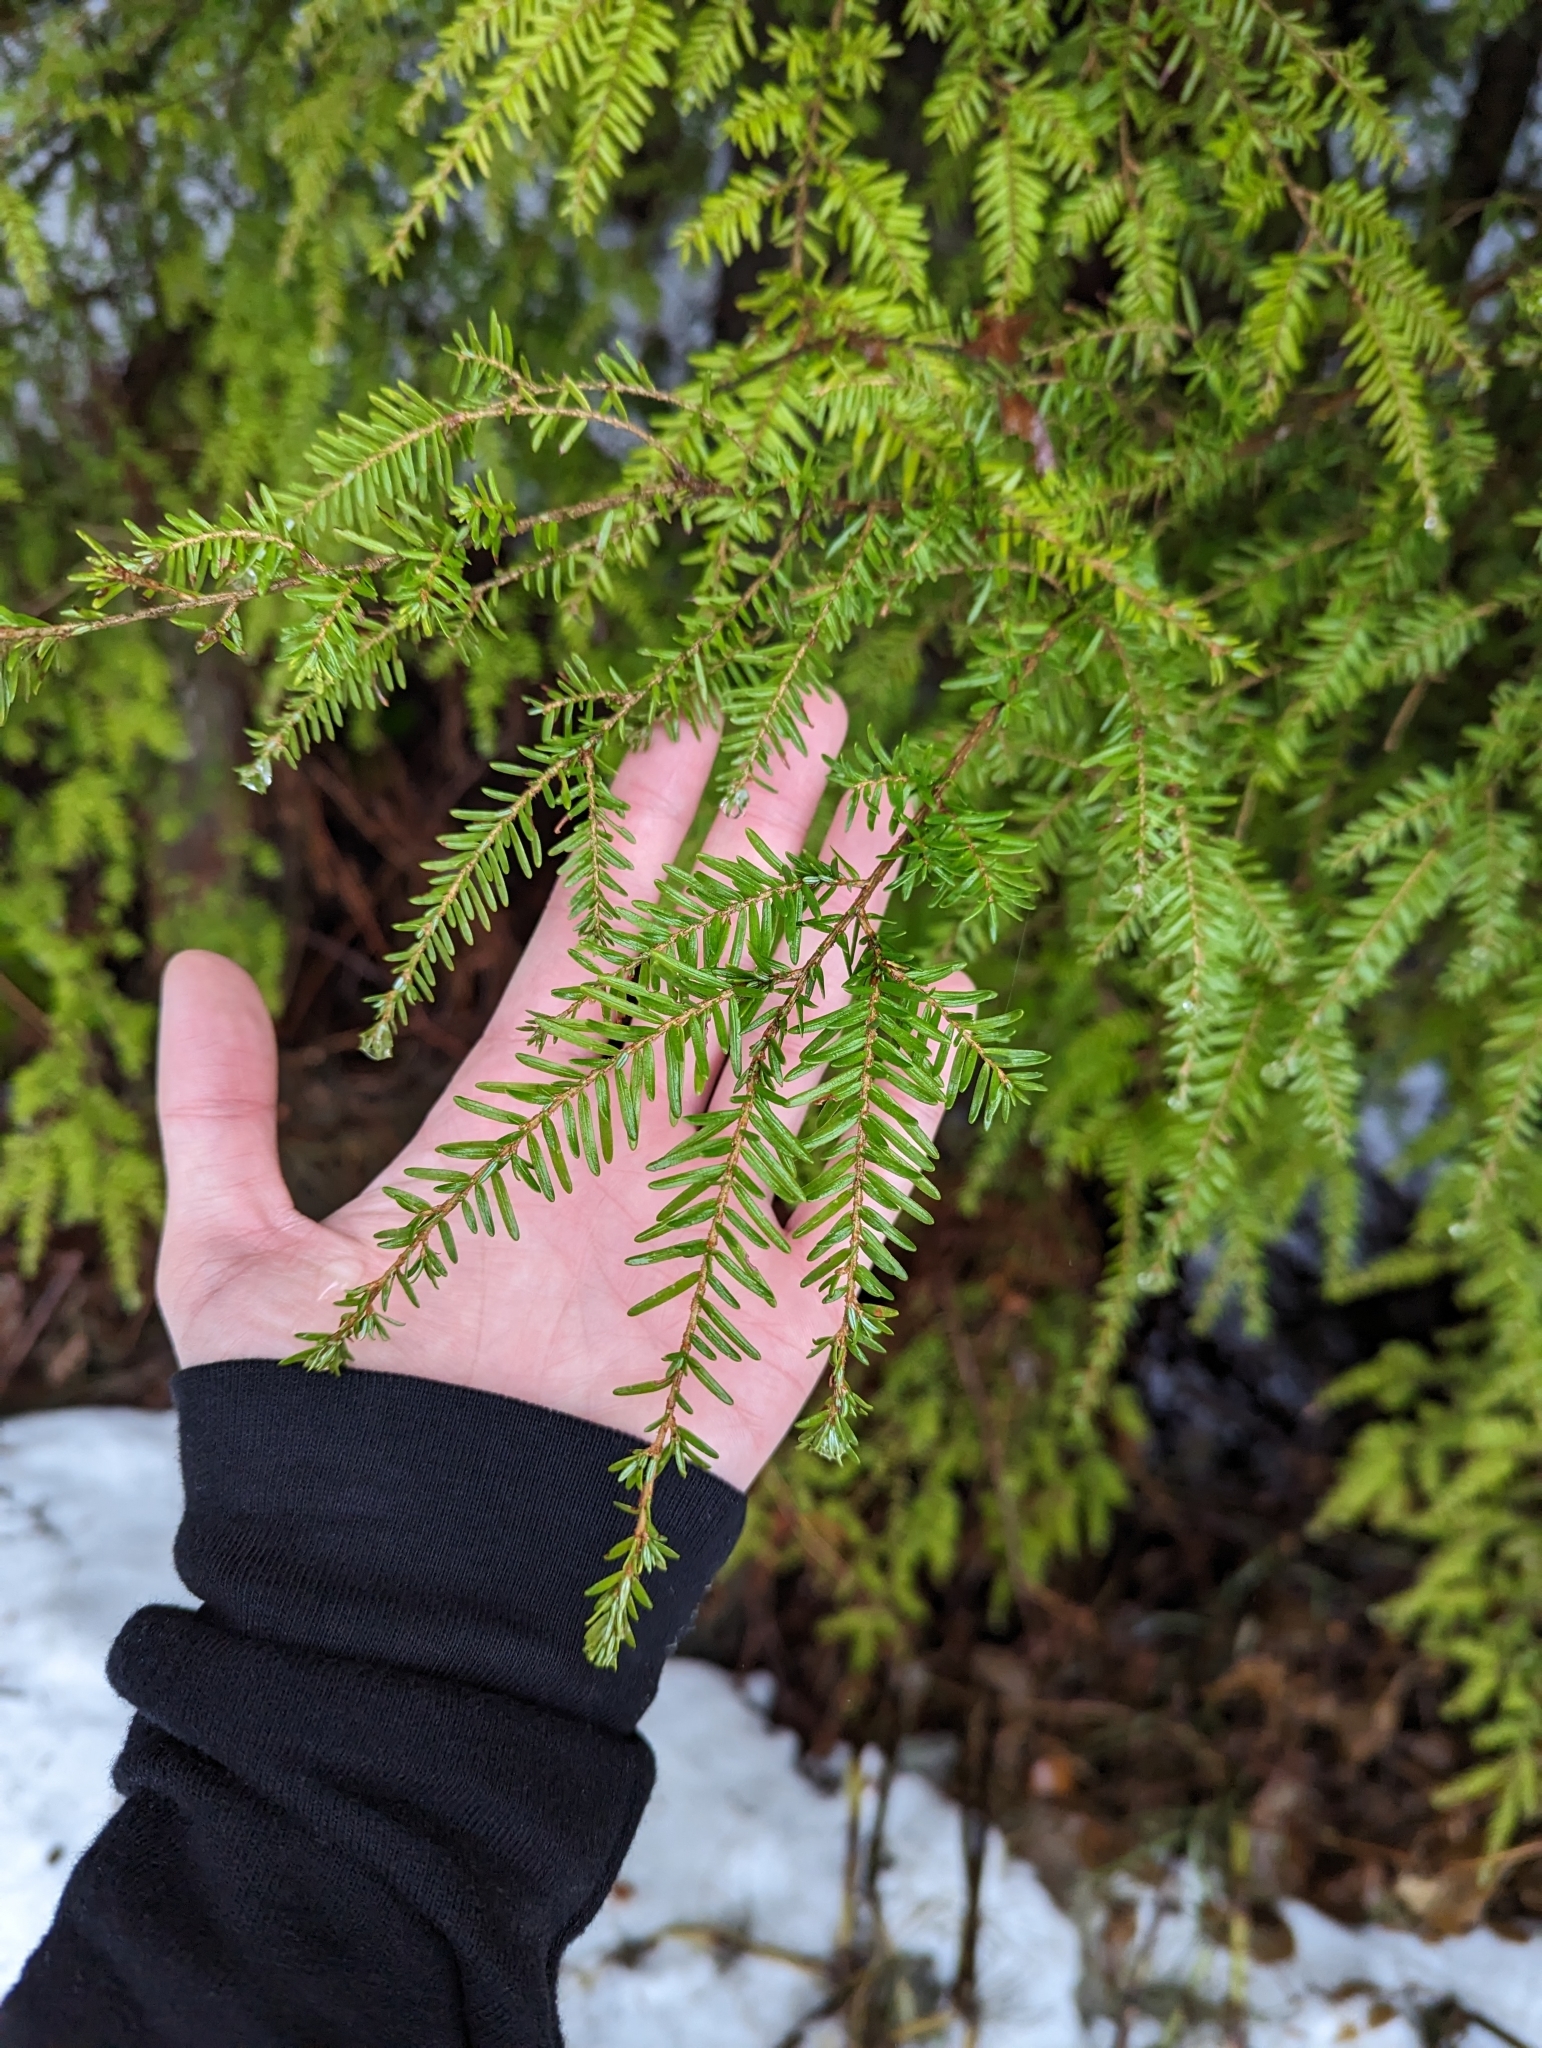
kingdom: Plantae
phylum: Tracheophyta
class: Pinopsida
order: Pinales
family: Pinaceae
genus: Tsuga
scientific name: Tsuga heterophylla
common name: Western hemlock
